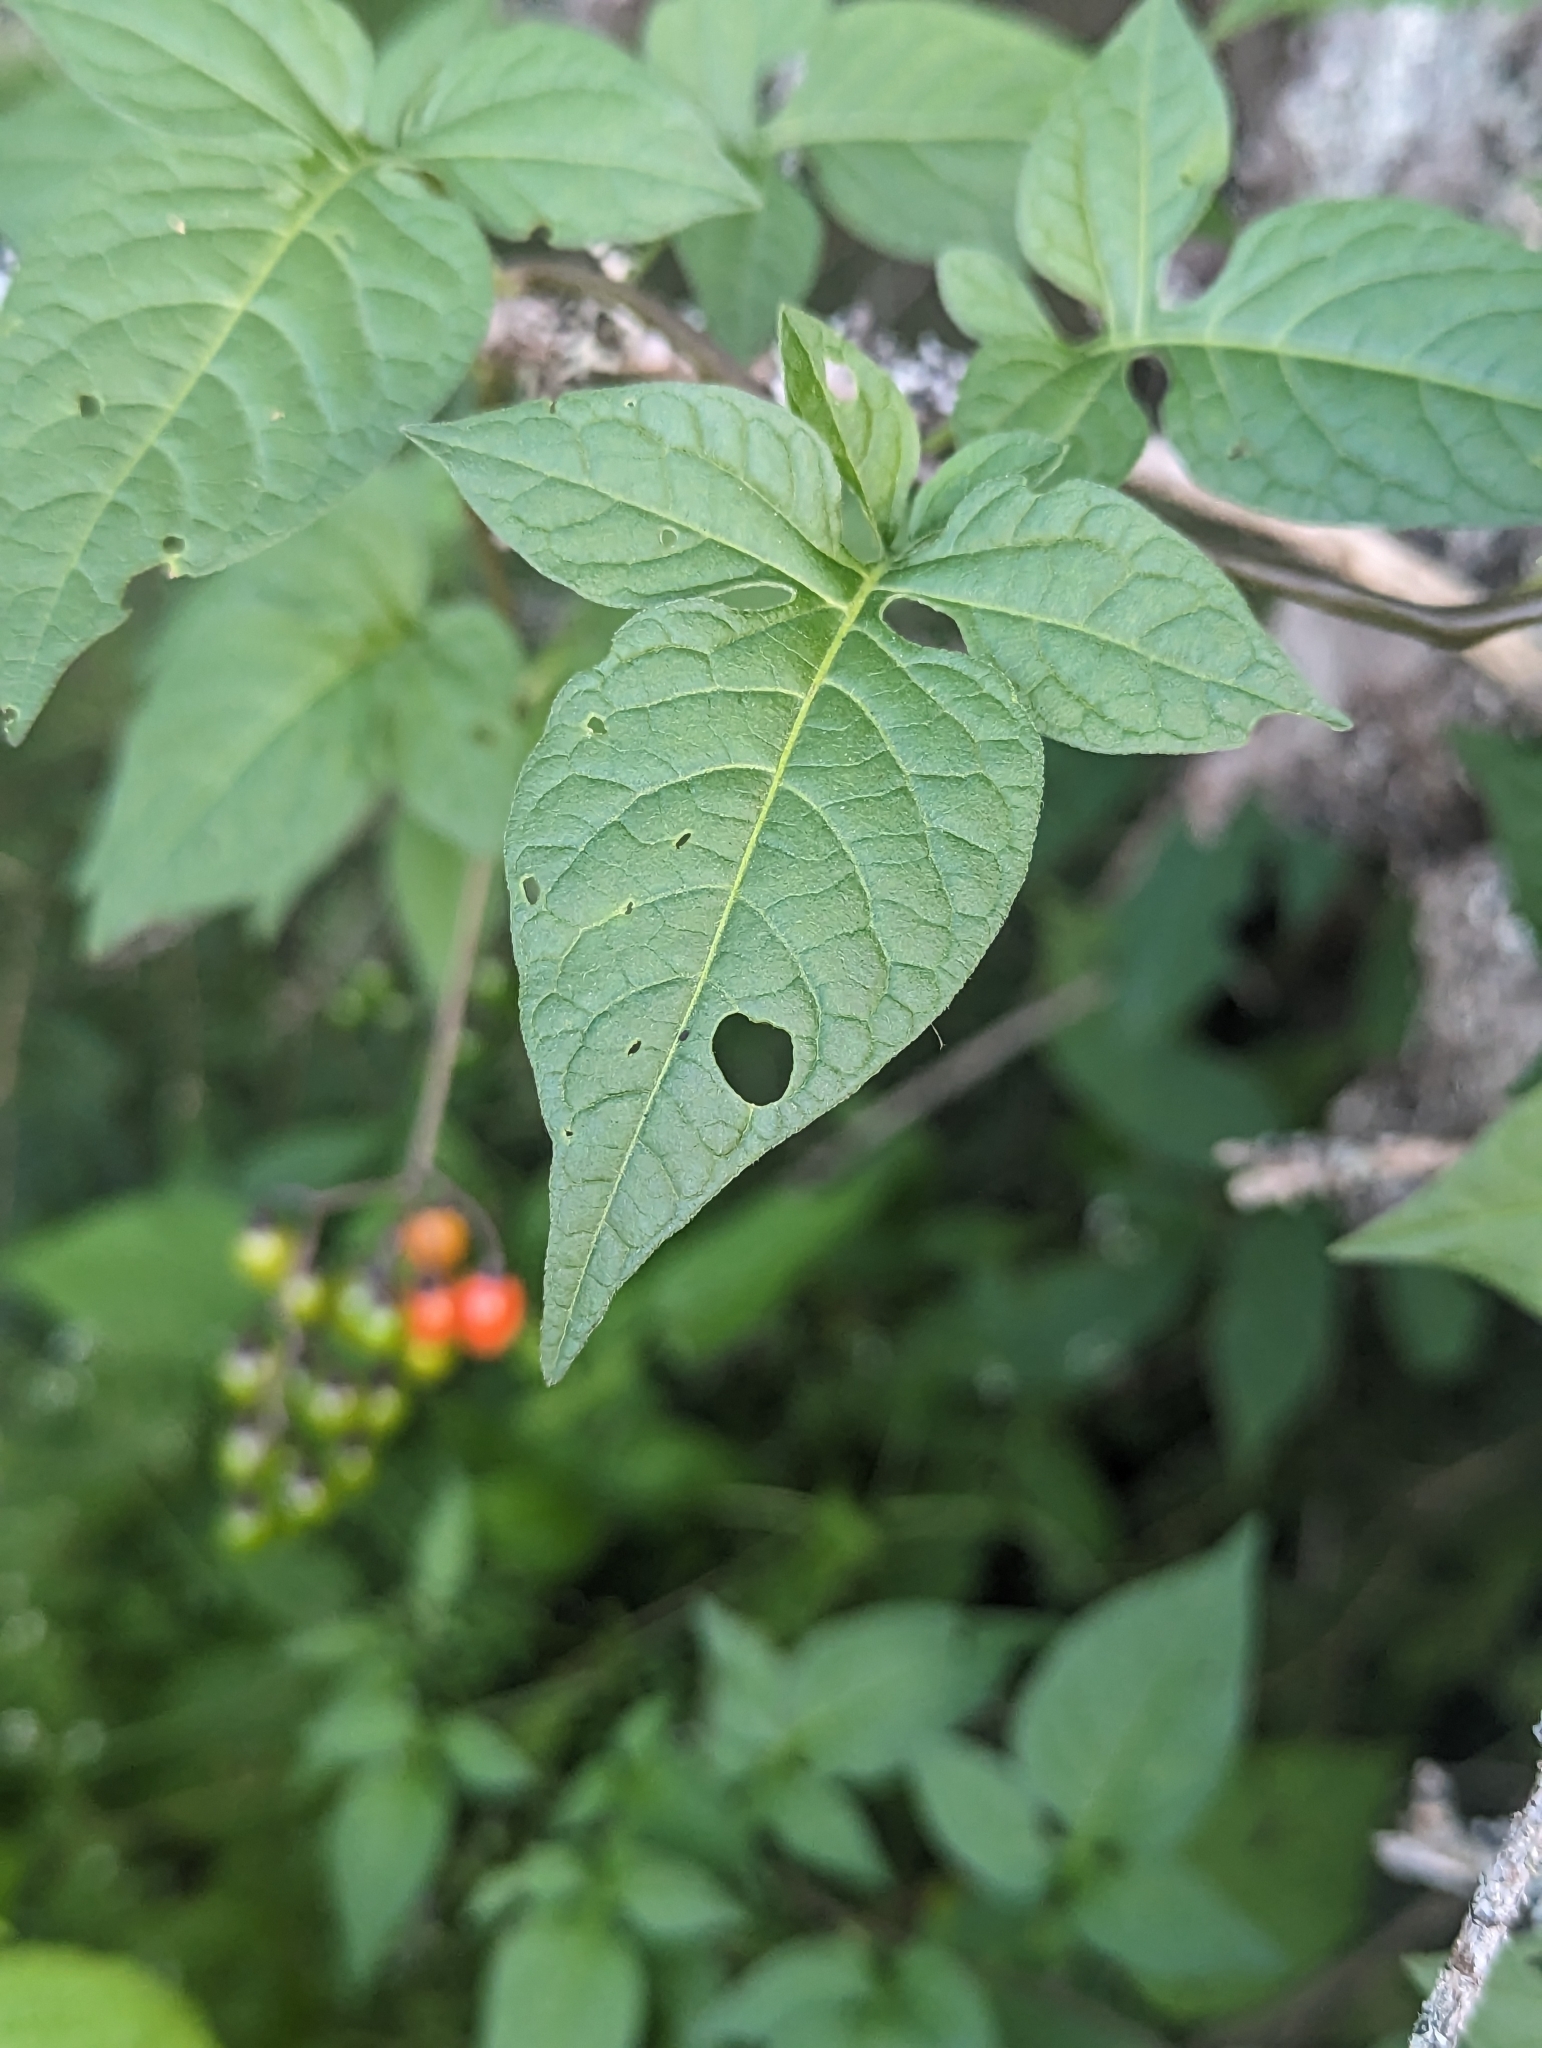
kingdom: Plantae
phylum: Tracheophyta
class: Magnoliopsida
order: Solanales
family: Solanaceae
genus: Solanum
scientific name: Solanum dulcamara
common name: Climbing nightshade
